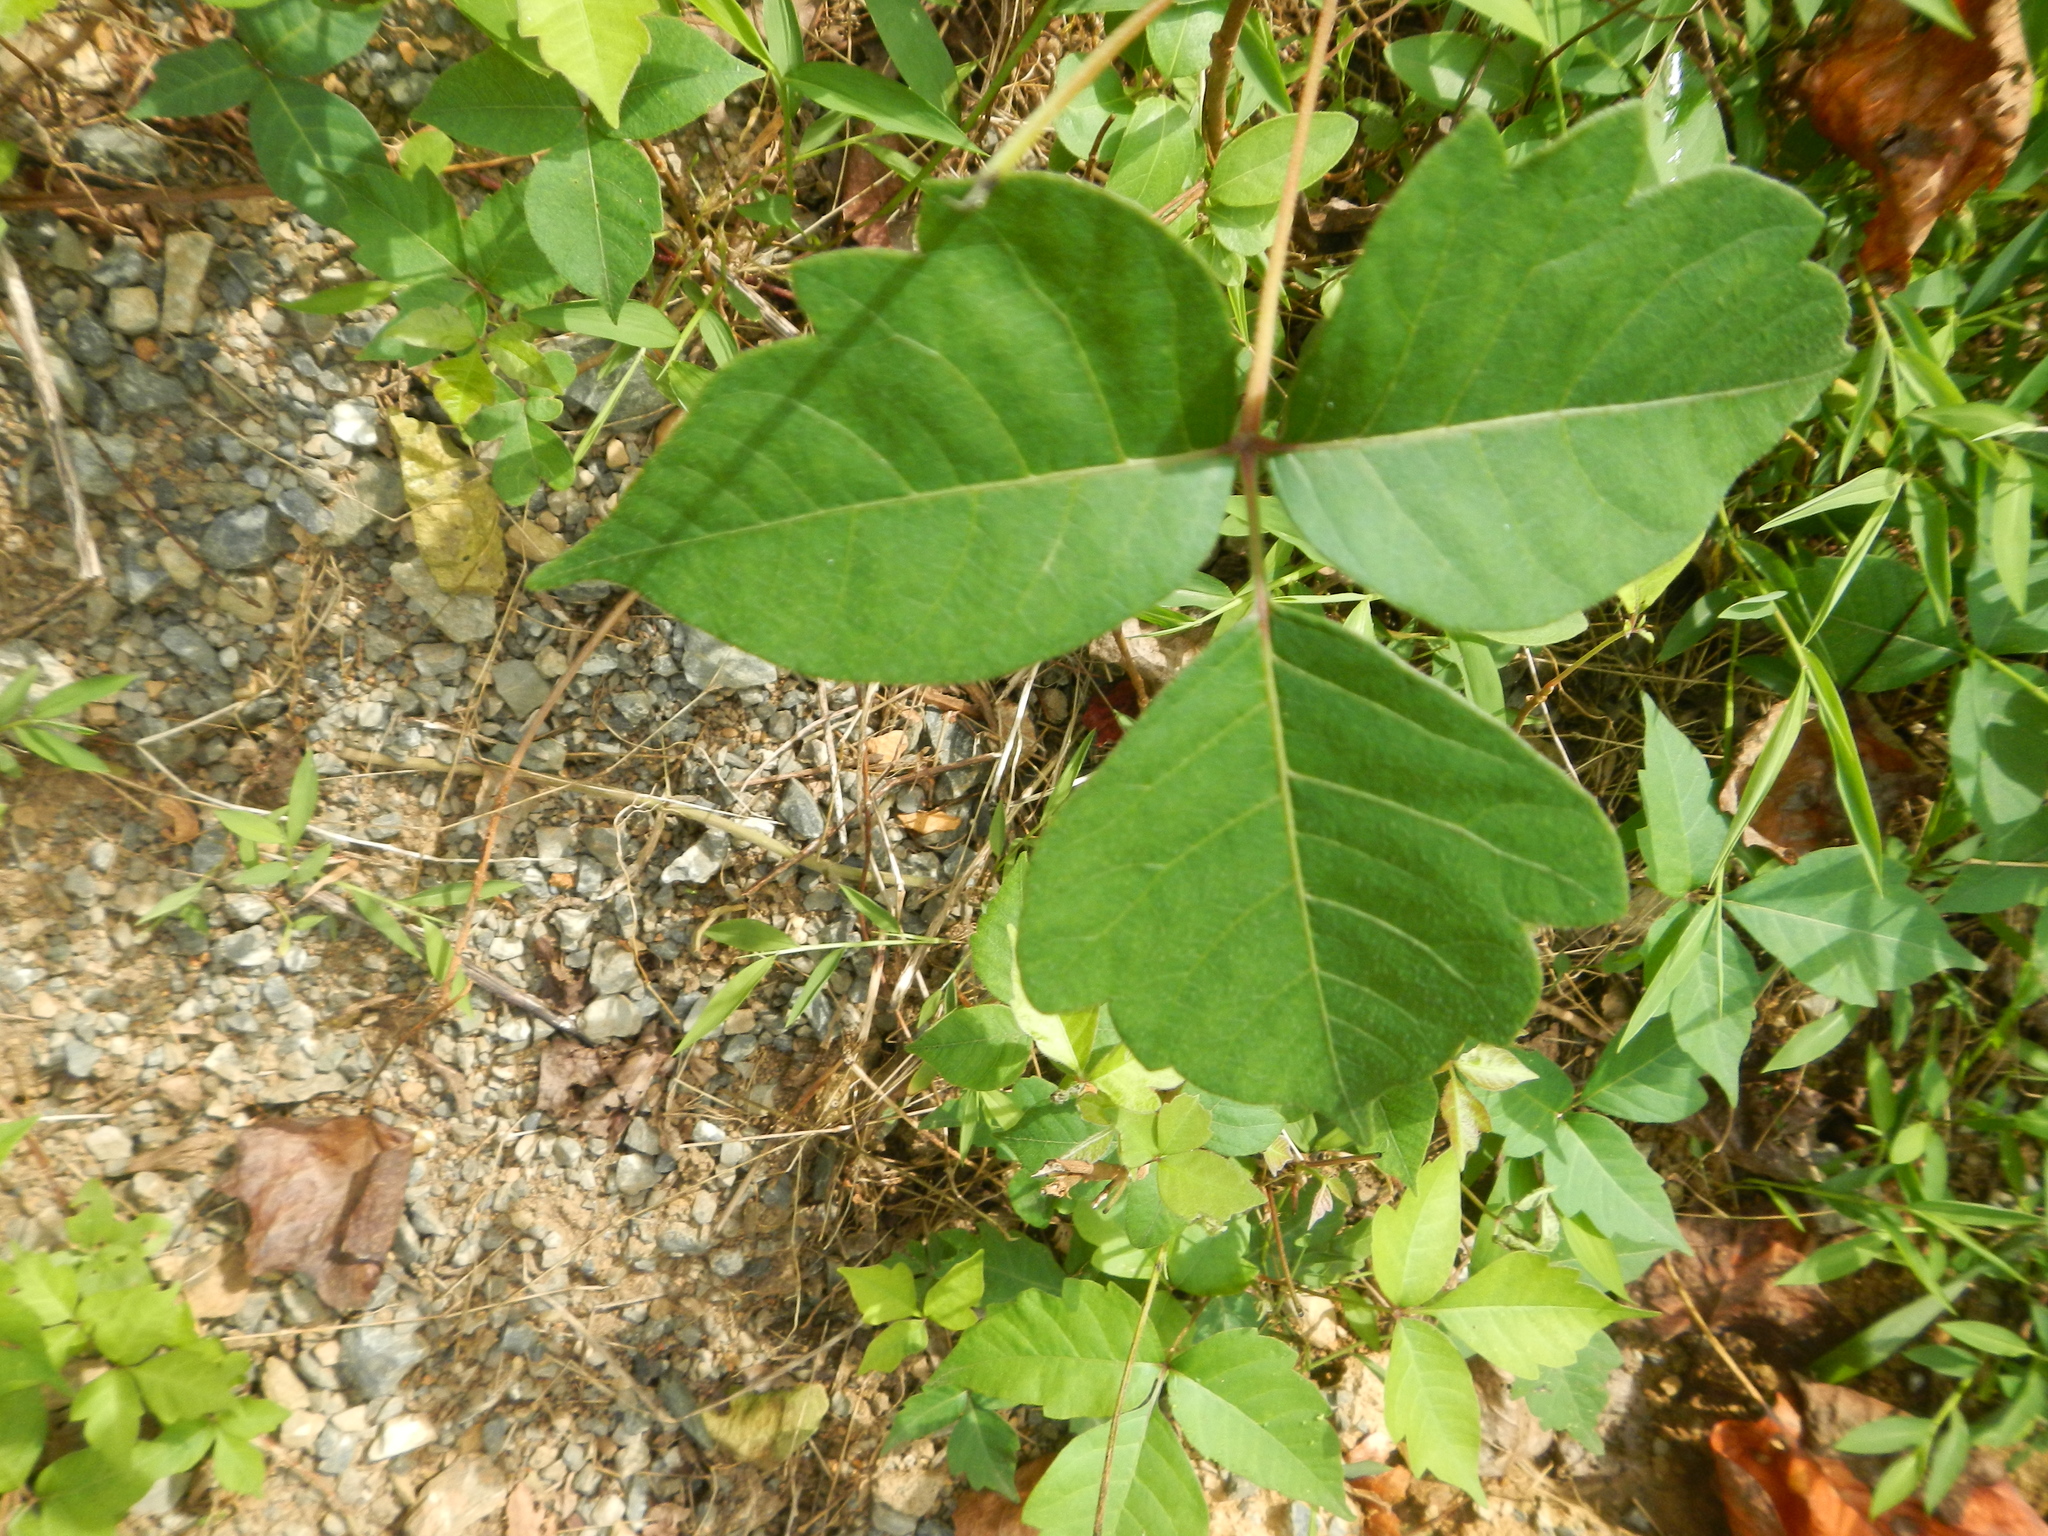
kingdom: Plantae
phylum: Tracheophyta
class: Magnoliopsida
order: Sapindales
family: Anacardiaceae
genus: Toxicodendron
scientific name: Toxicodendron radicans
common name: Poison ivy
